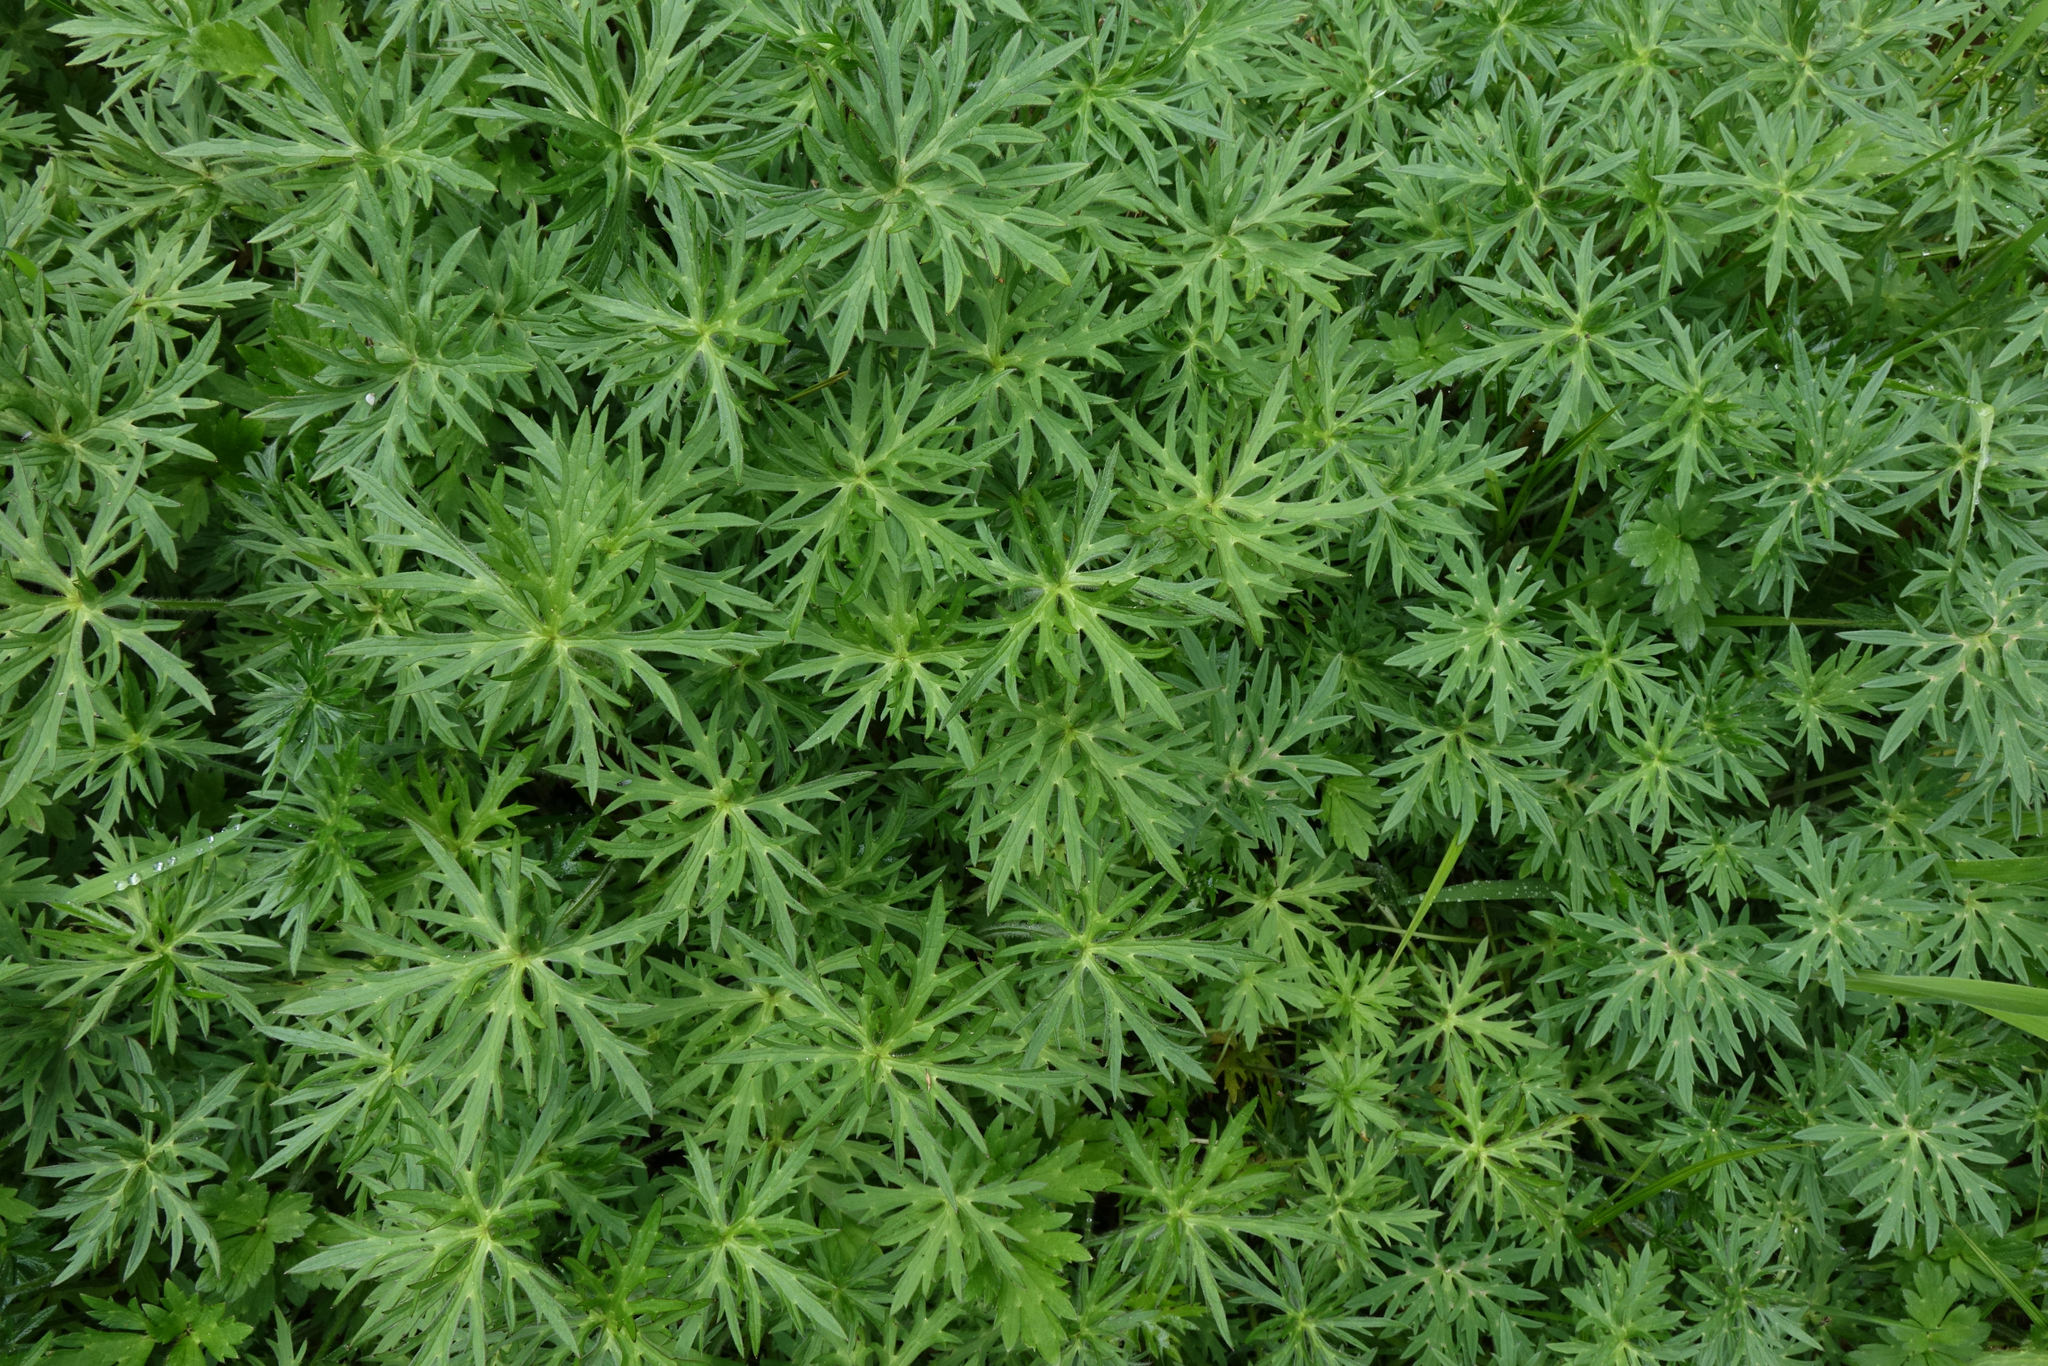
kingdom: Plantae
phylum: Tracheophyta
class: Magnoliopsida
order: Ranunculales
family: Ranunculaceae
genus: Ranunculus
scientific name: Ranunculus acris
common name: Meadow buttercup
